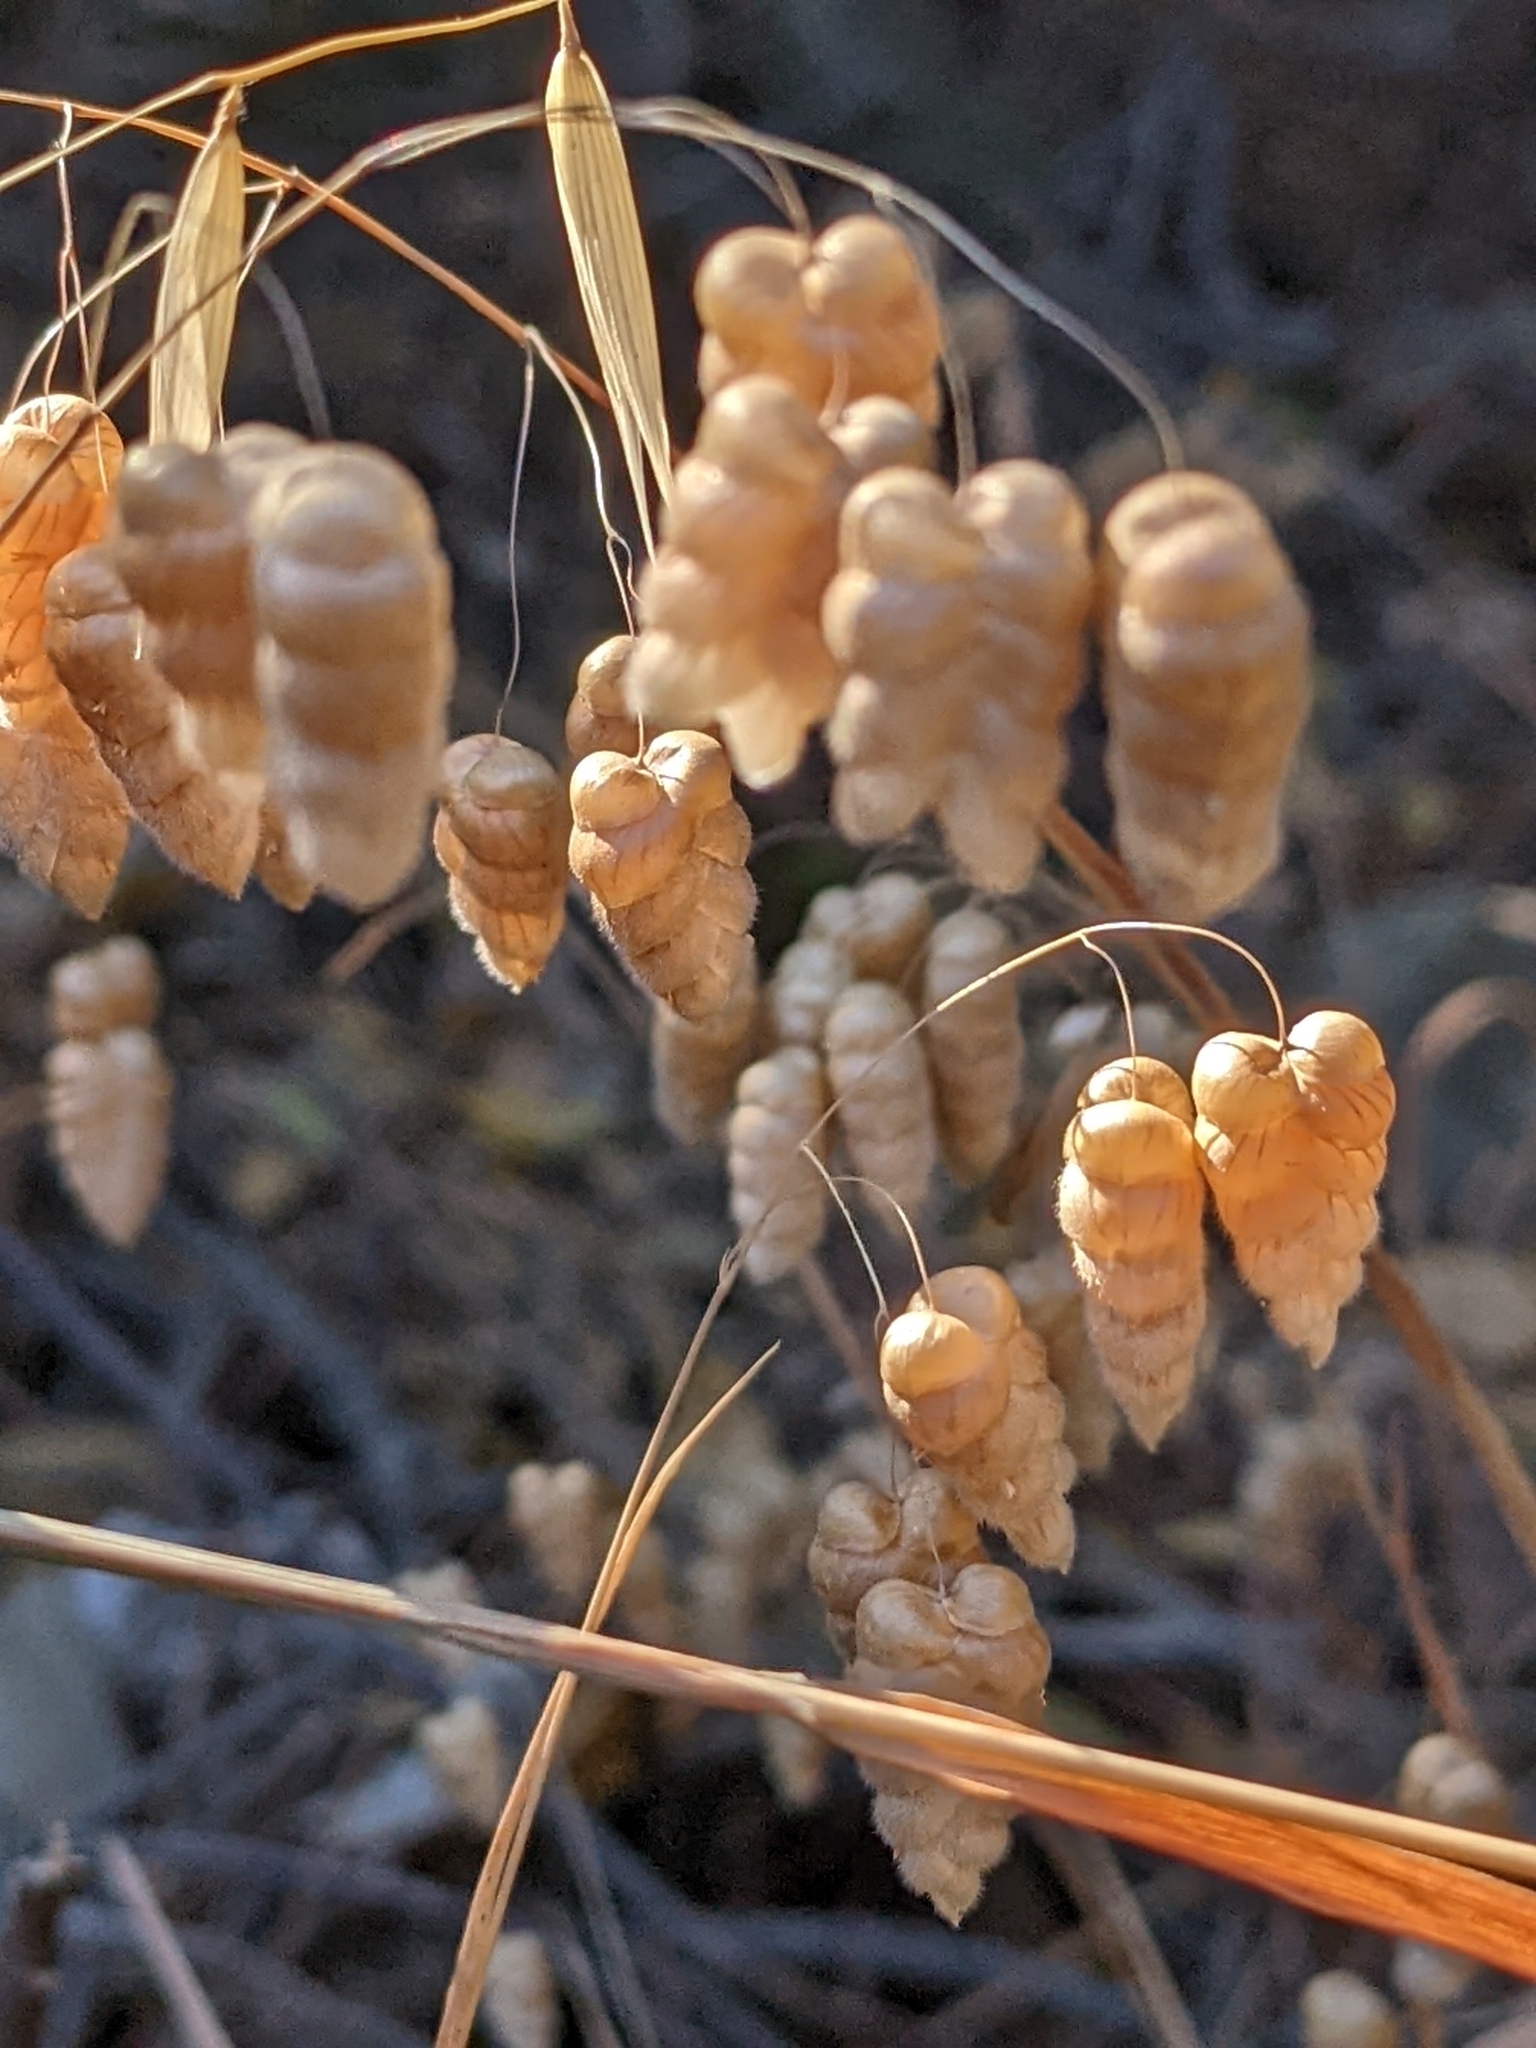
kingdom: Plantae
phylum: Tracheophyta
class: Liliopsida
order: Poales
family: Poaceae
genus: Briza
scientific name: Briza maxima
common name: Big quakinggrass
